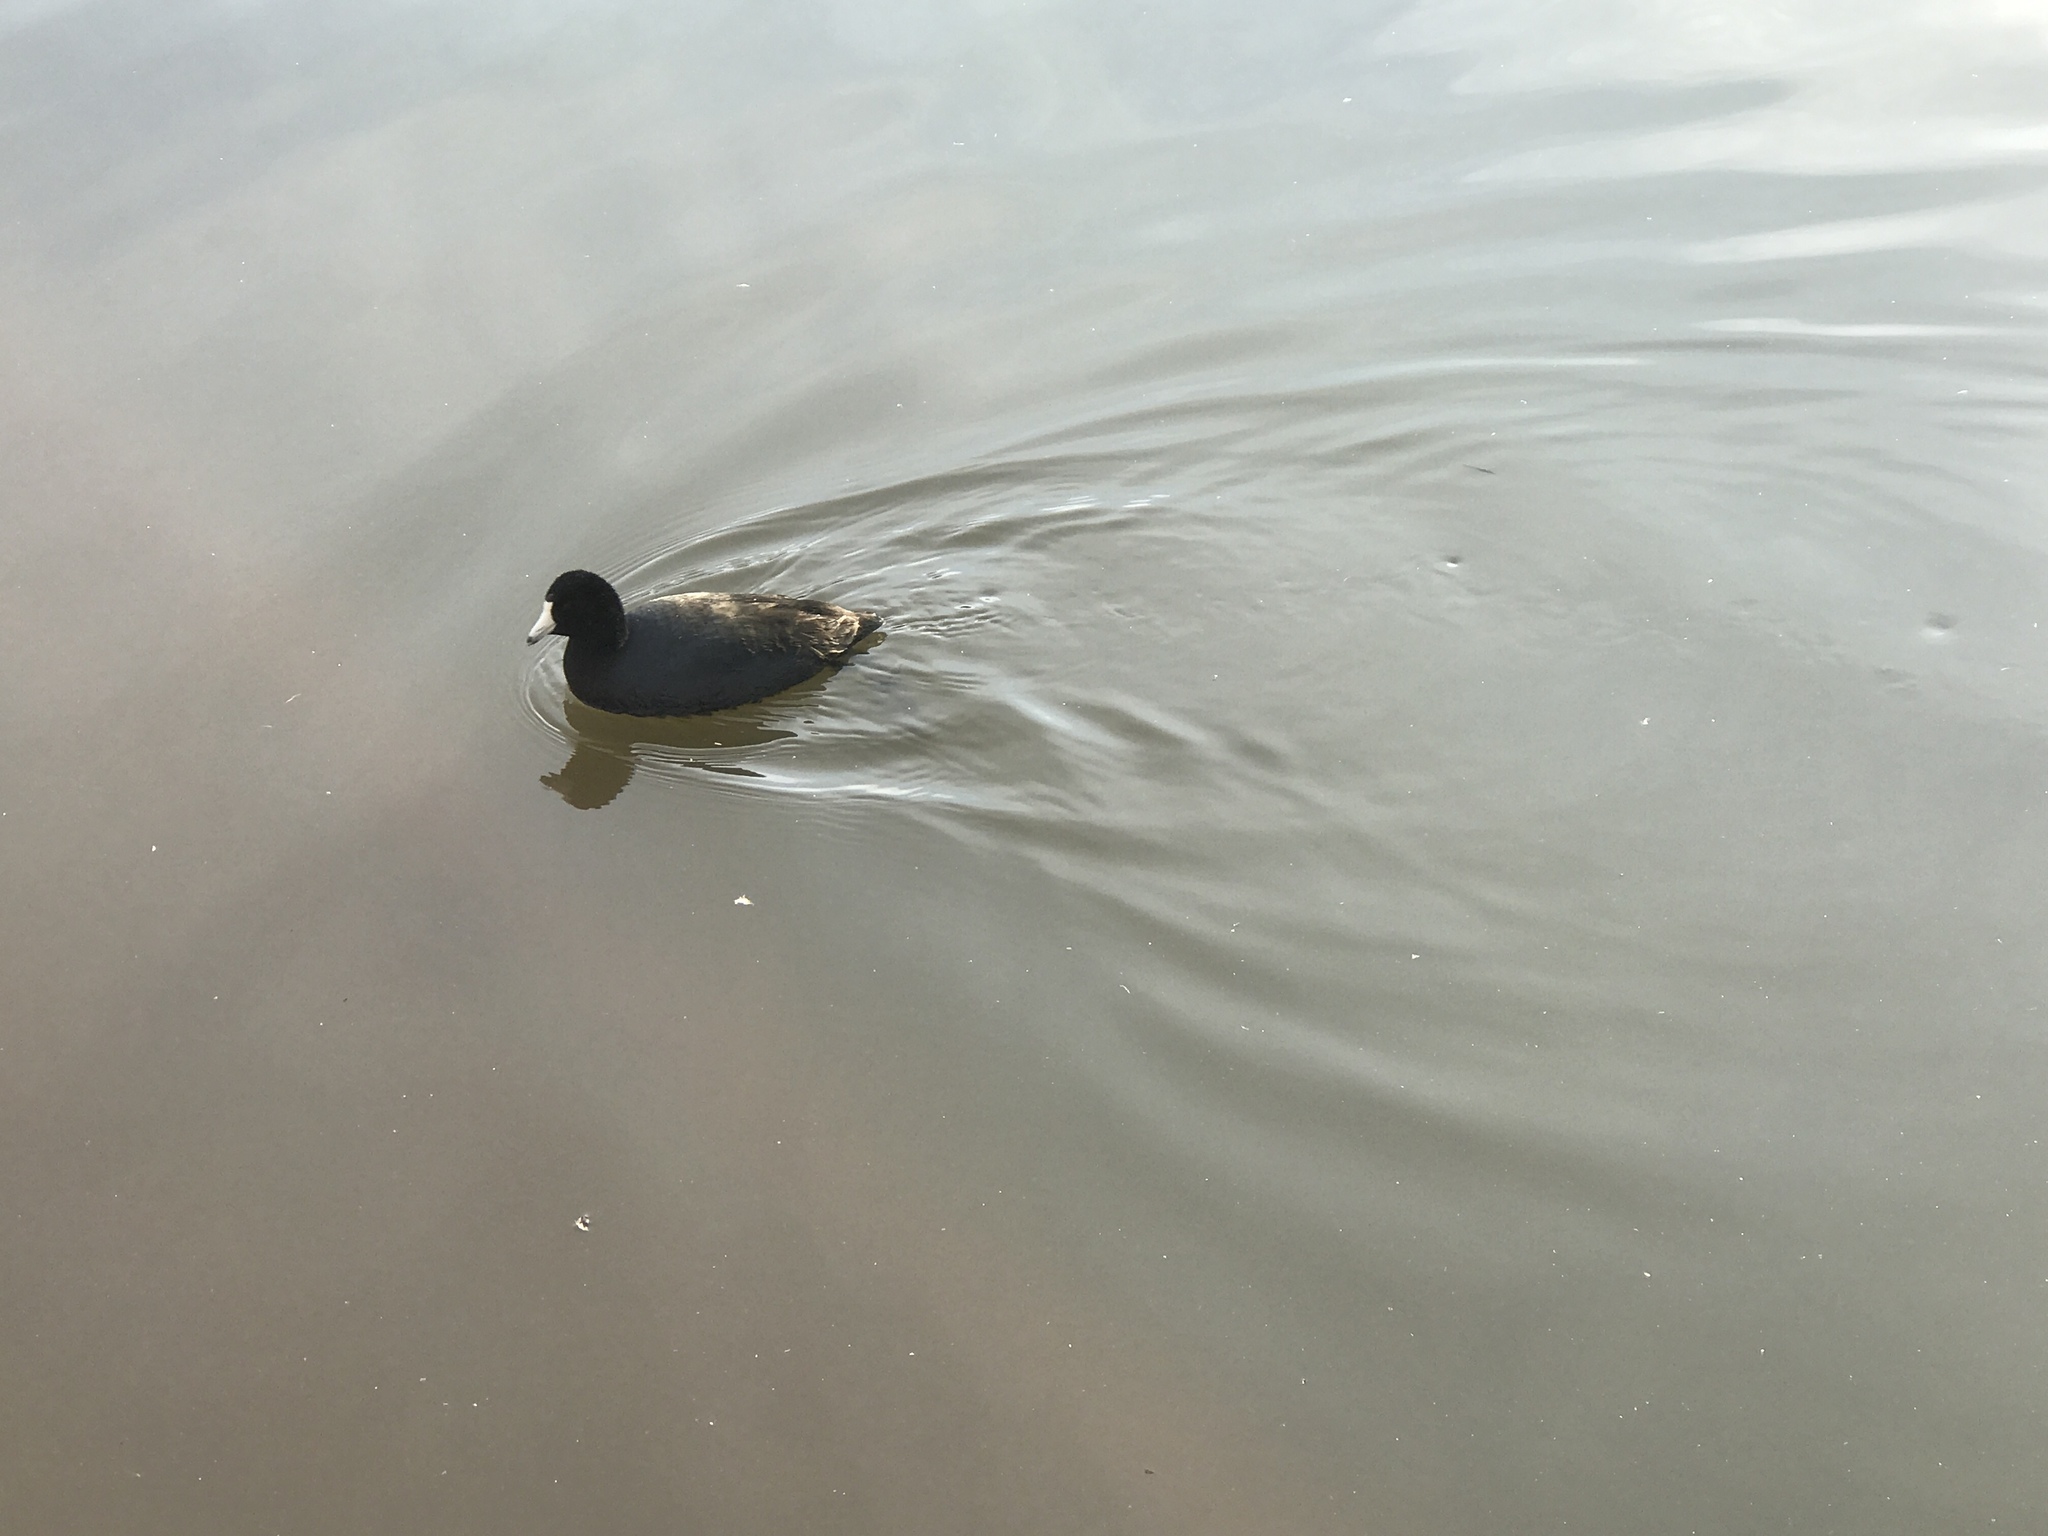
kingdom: Animalia
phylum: Chordata
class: Aves
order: Gruiformes
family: Rallidae
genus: Fulica
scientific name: Fulica americana
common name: American coot
